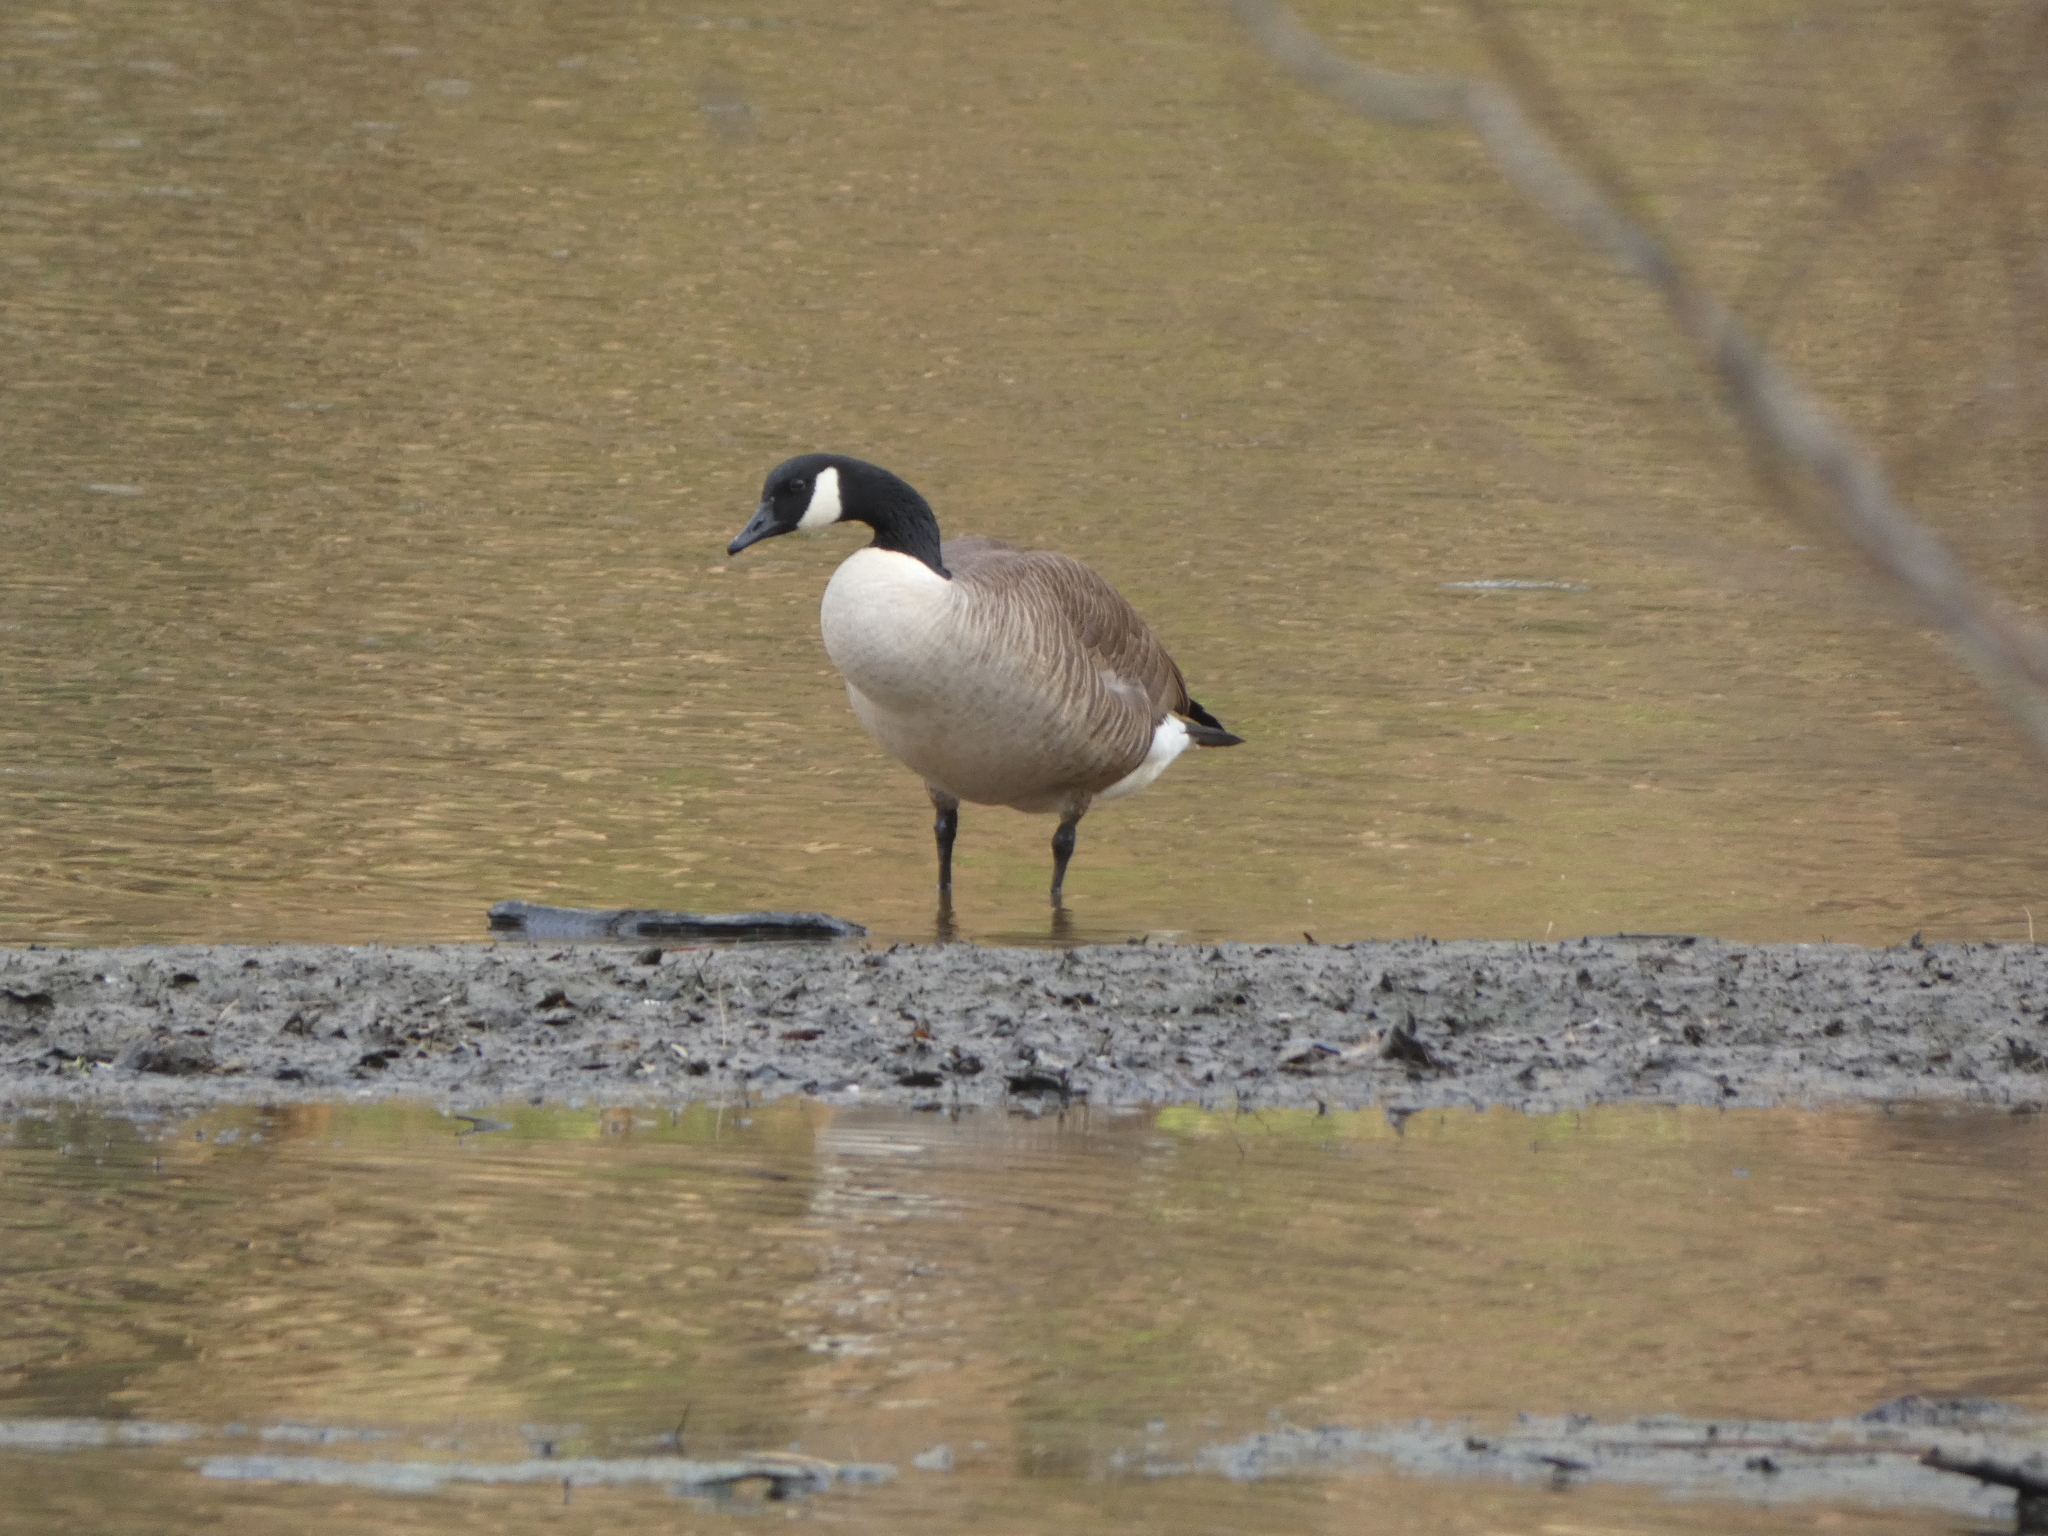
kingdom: Animalia
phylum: Chordata
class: Aves
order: Anseriformes
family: Anatidae
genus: Branta
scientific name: Branta canadensis
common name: Canada goose
